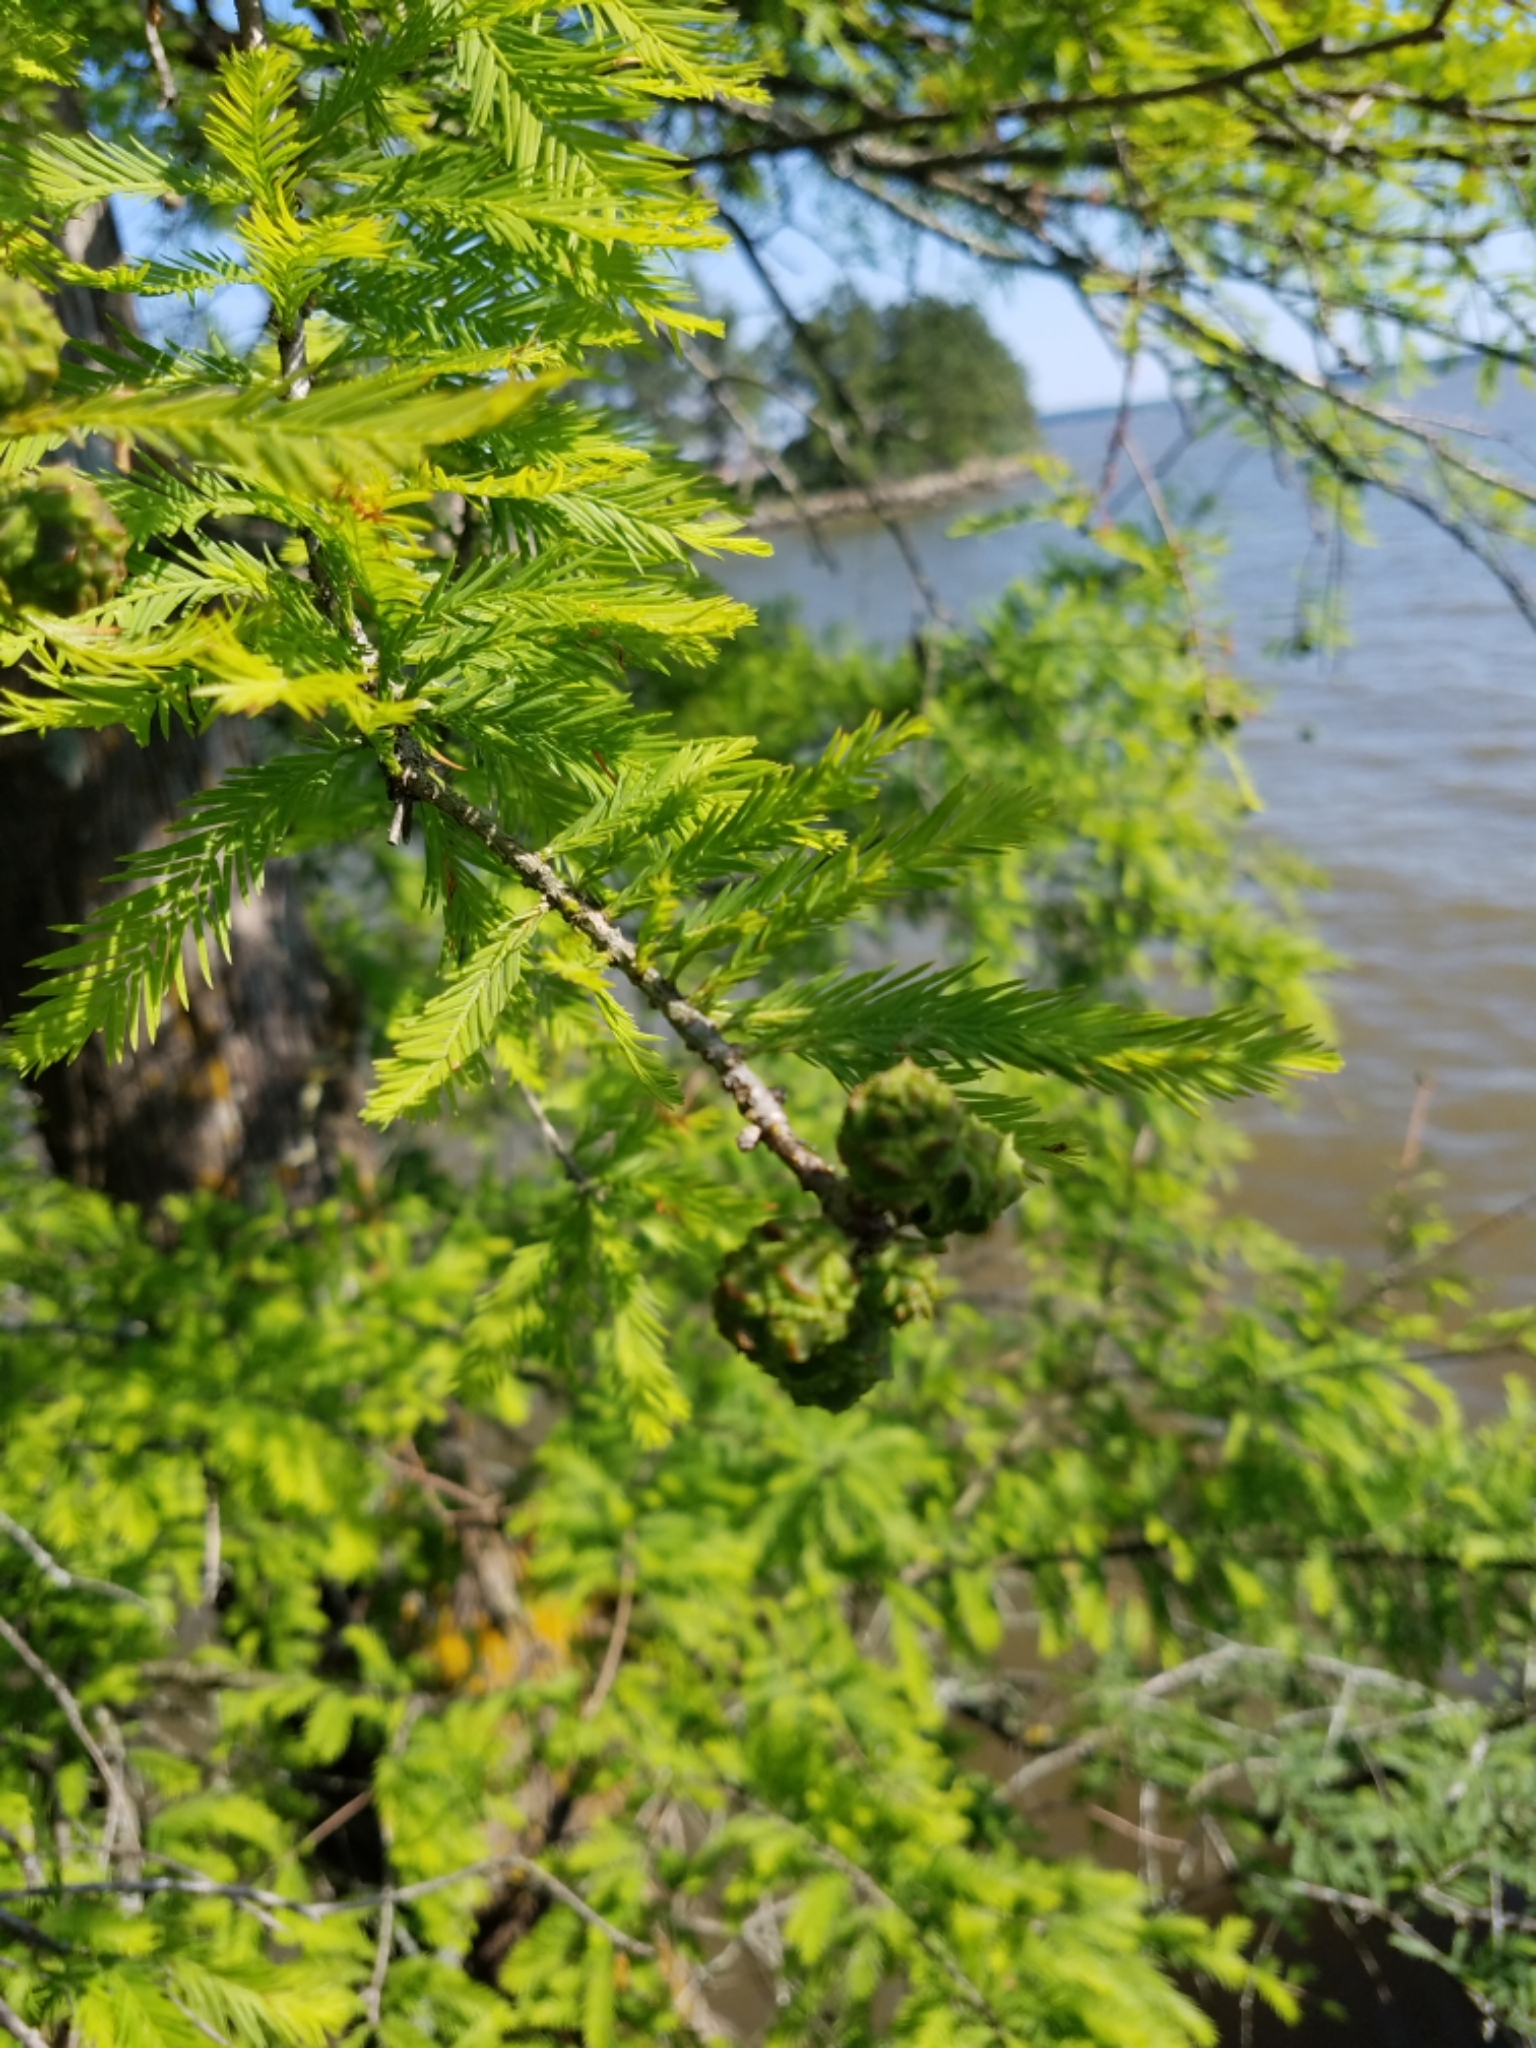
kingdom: Plantae
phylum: Tracheophyta
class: Pinopsida
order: Pinales
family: Cupressaceae
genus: Taxodium
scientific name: Taxodium distichum
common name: Bald cypress
